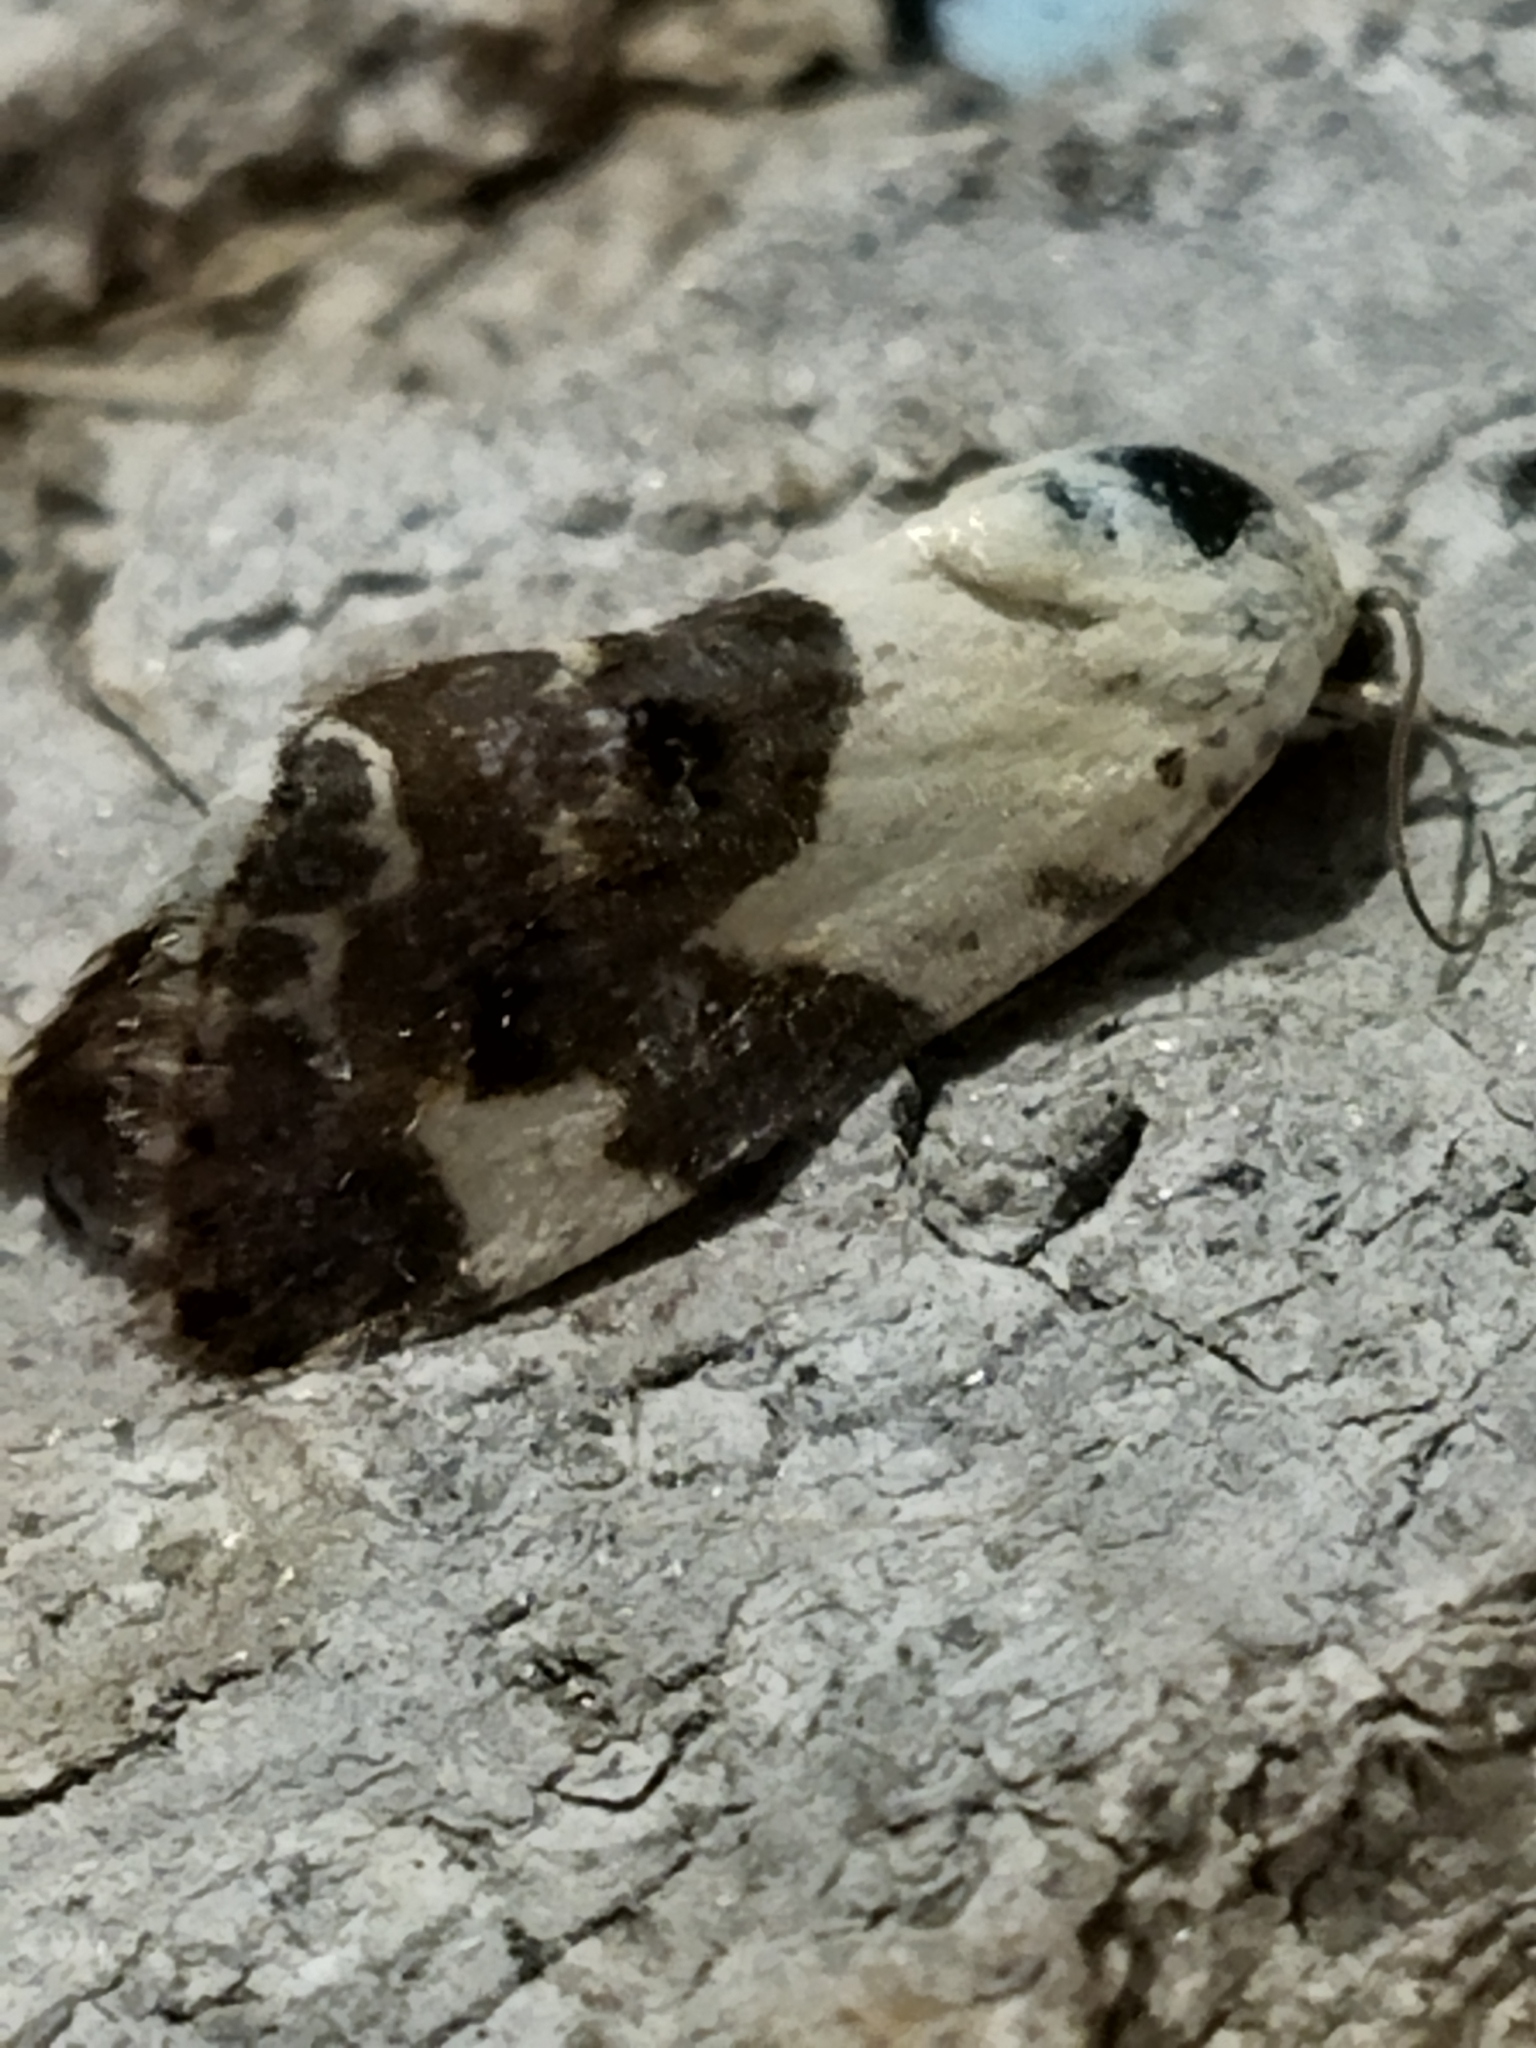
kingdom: Animalia
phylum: Arthropoda
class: Insecta
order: Lepidoptera
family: Noctuidae
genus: Acontia
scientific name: Acontia lucida
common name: Pale shoulder
